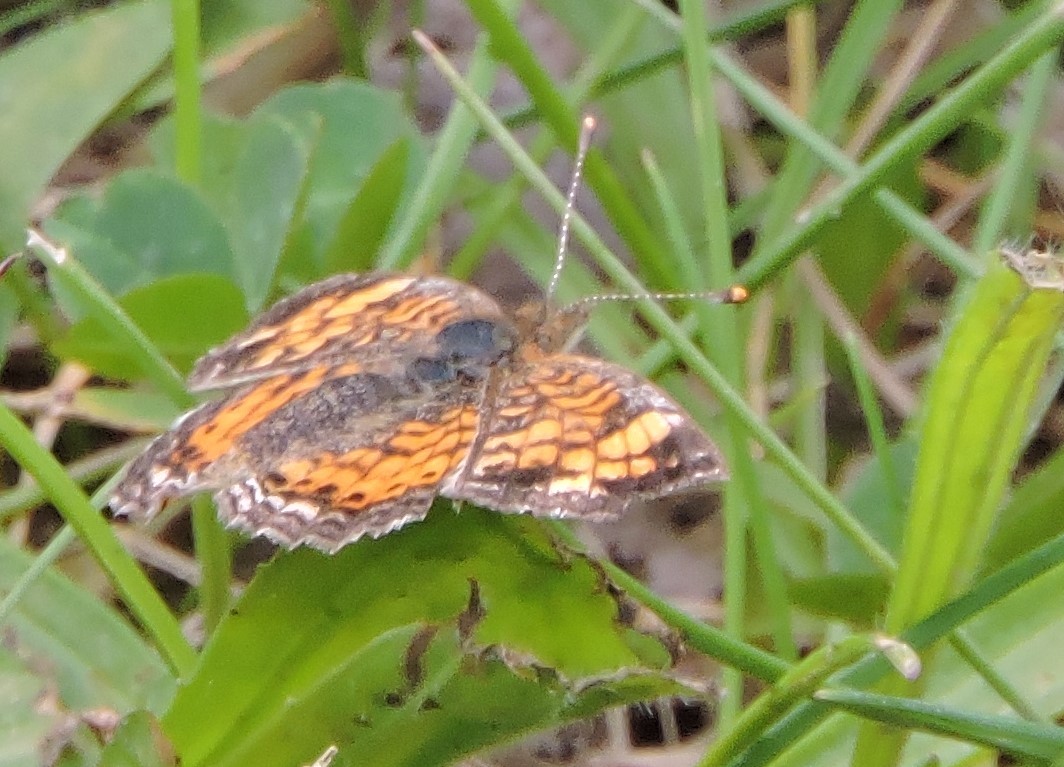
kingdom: Animalia
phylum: Arthropoda
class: Insecta
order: Lepidoptera
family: Nymphalidae
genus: Phyciodes
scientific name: Phyciodes tharos
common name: Pearl crescent
